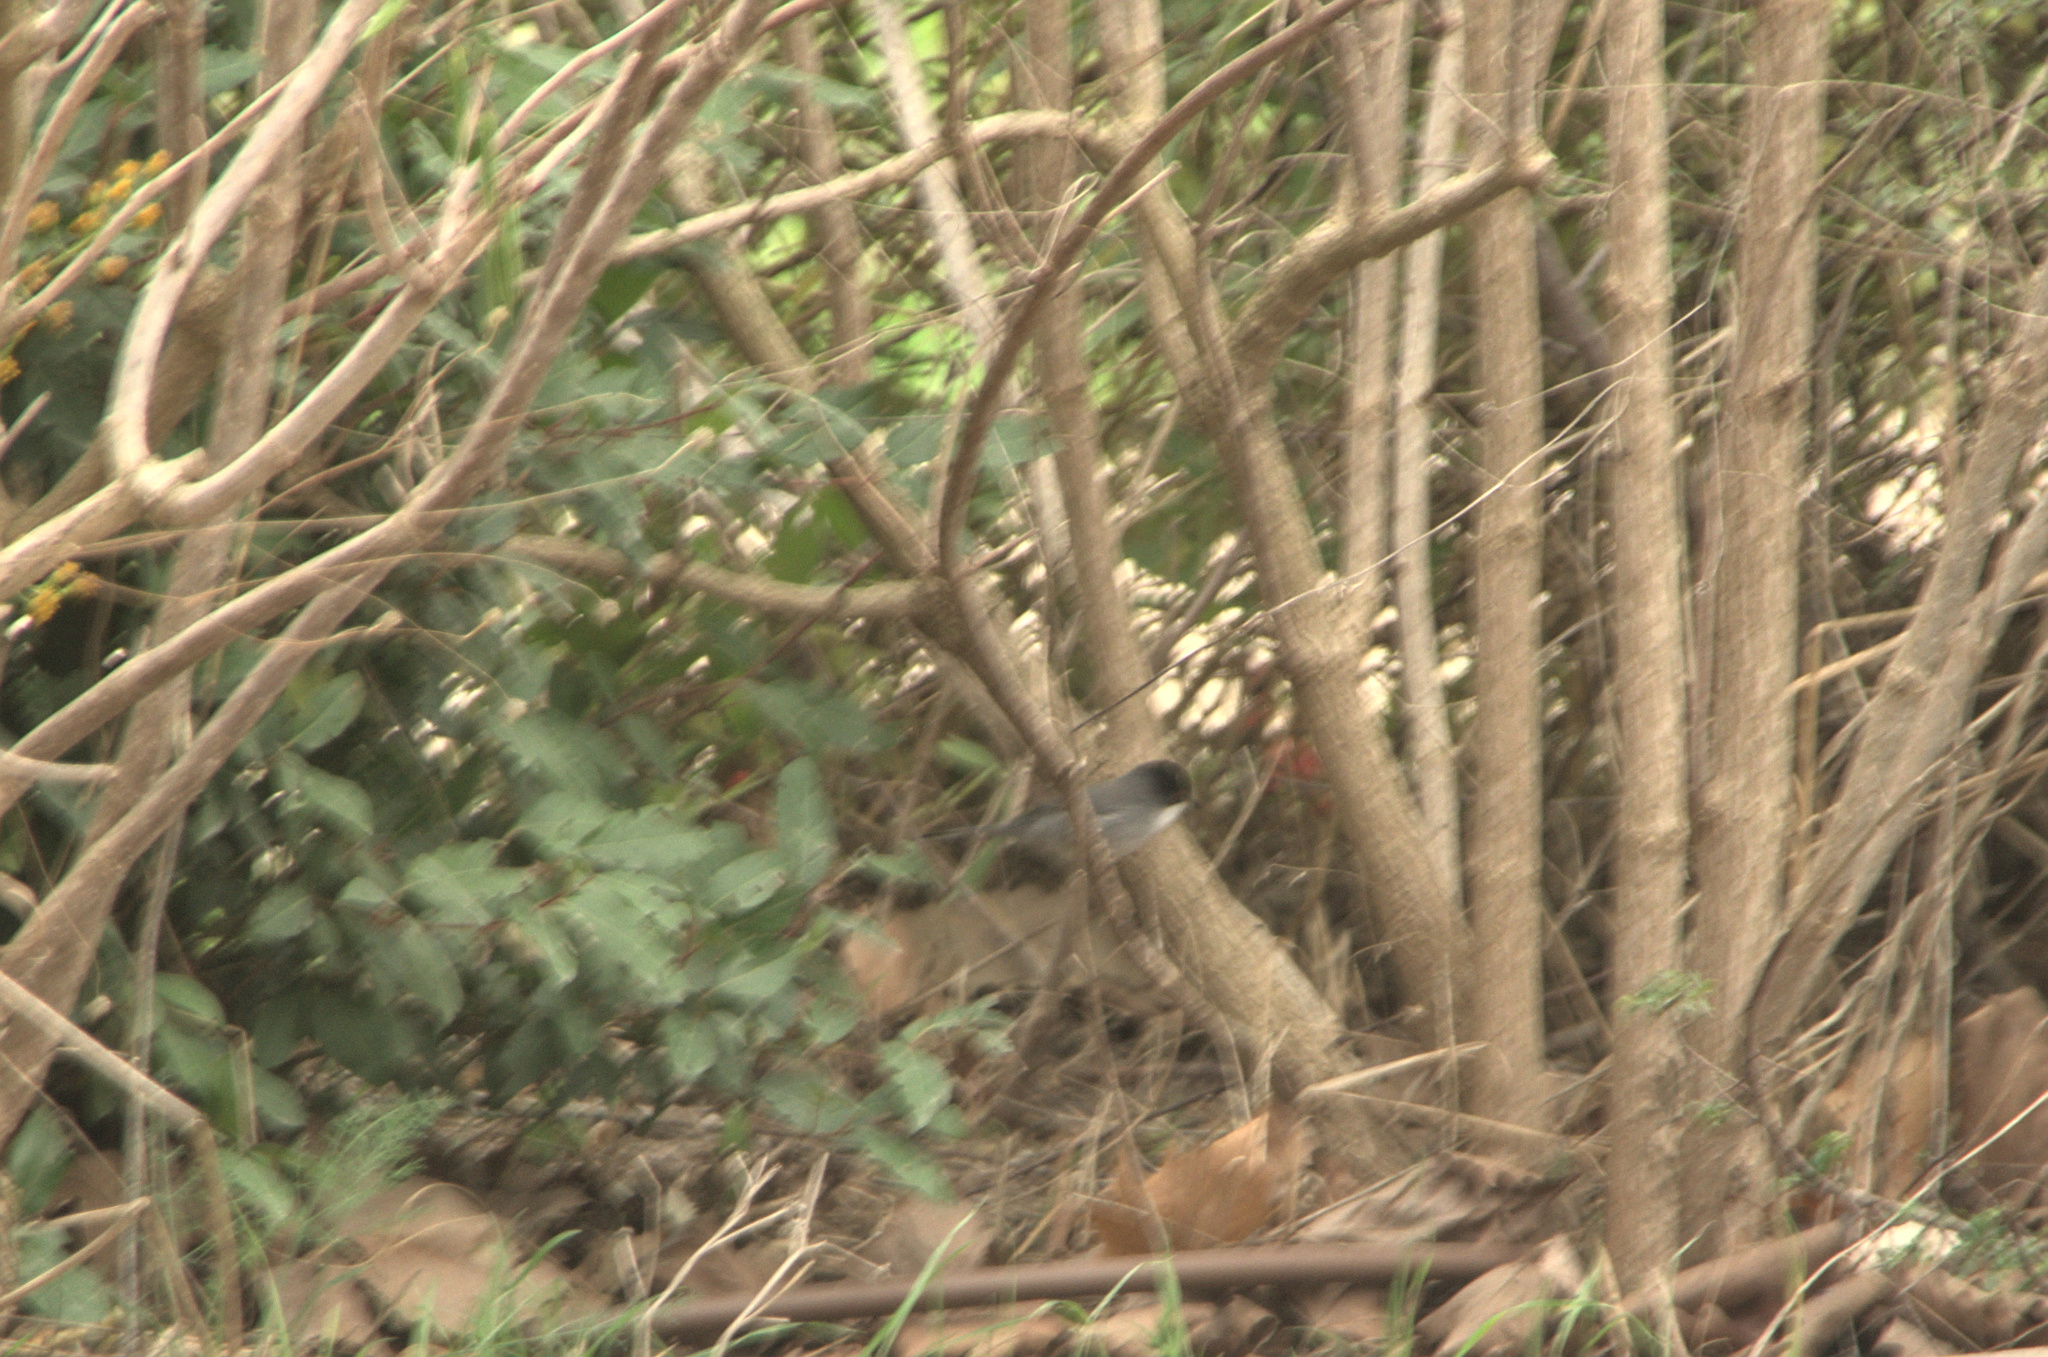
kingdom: Animalia
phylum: Chordata
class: Aves
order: Passeriformes
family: Sylviidae
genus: Curruca
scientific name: Curruca melanocephala
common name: Sardinian warbler
